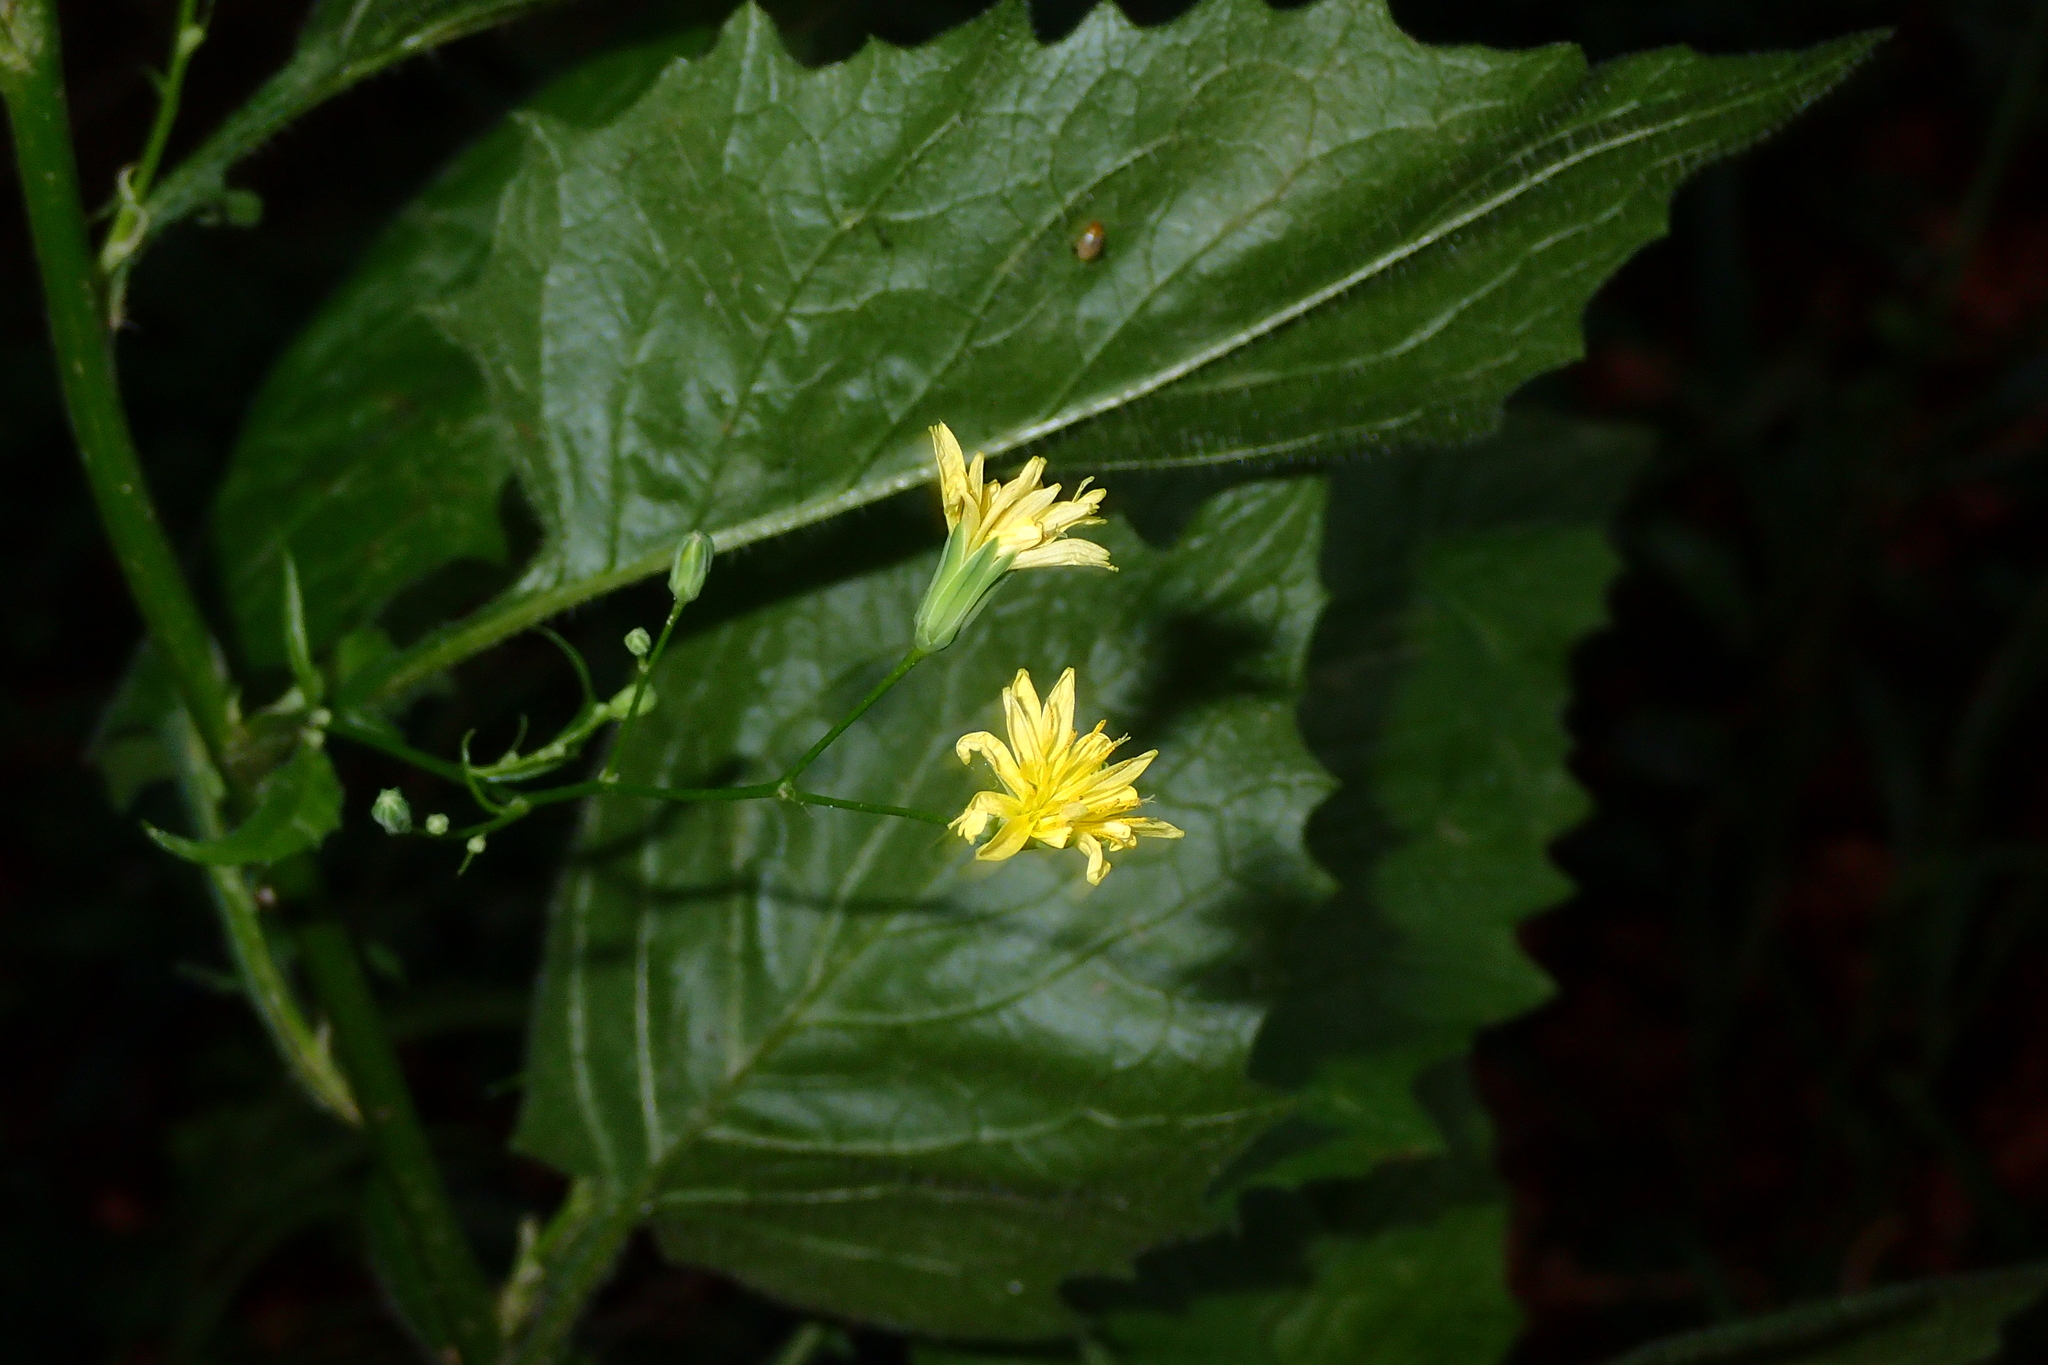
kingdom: Plantae
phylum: Tracheophyta
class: Magnoliopsida
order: Asterales
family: Asteraceae
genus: Lapsana
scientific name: Lapsana communis
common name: Nipplewort
